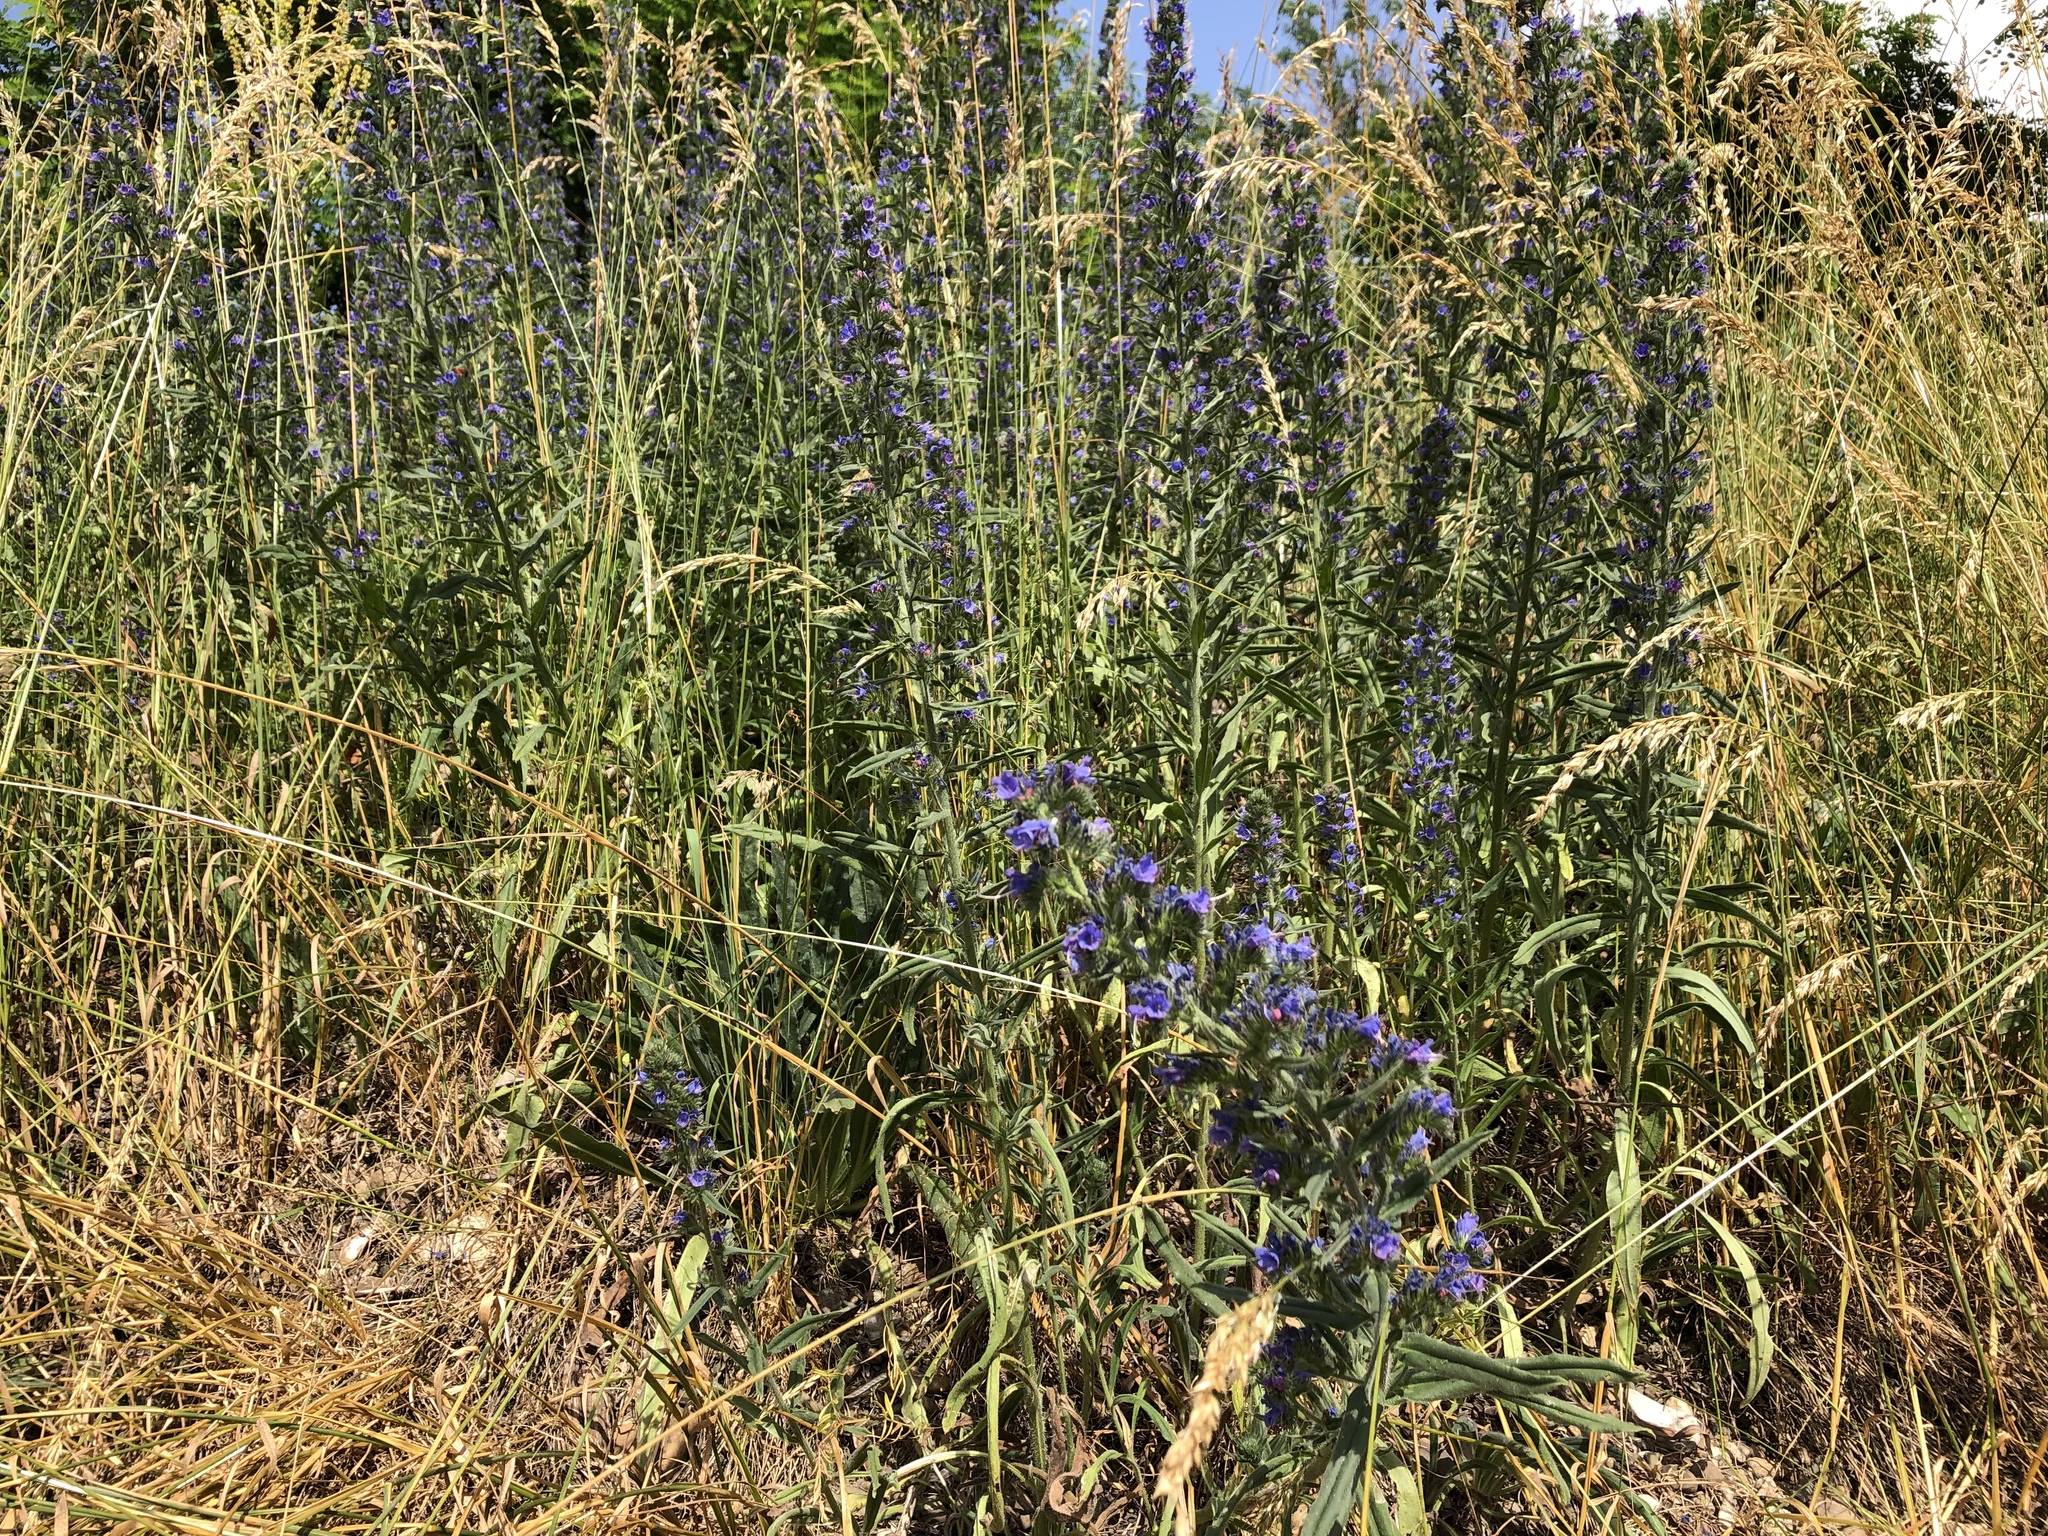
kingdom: Plantae
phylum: Tracheophyta
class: Magnoliopsida
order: Boraginales
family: Boraginaceae
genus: Echium
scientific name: Echium vulgare
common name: Common viper's bugloss
